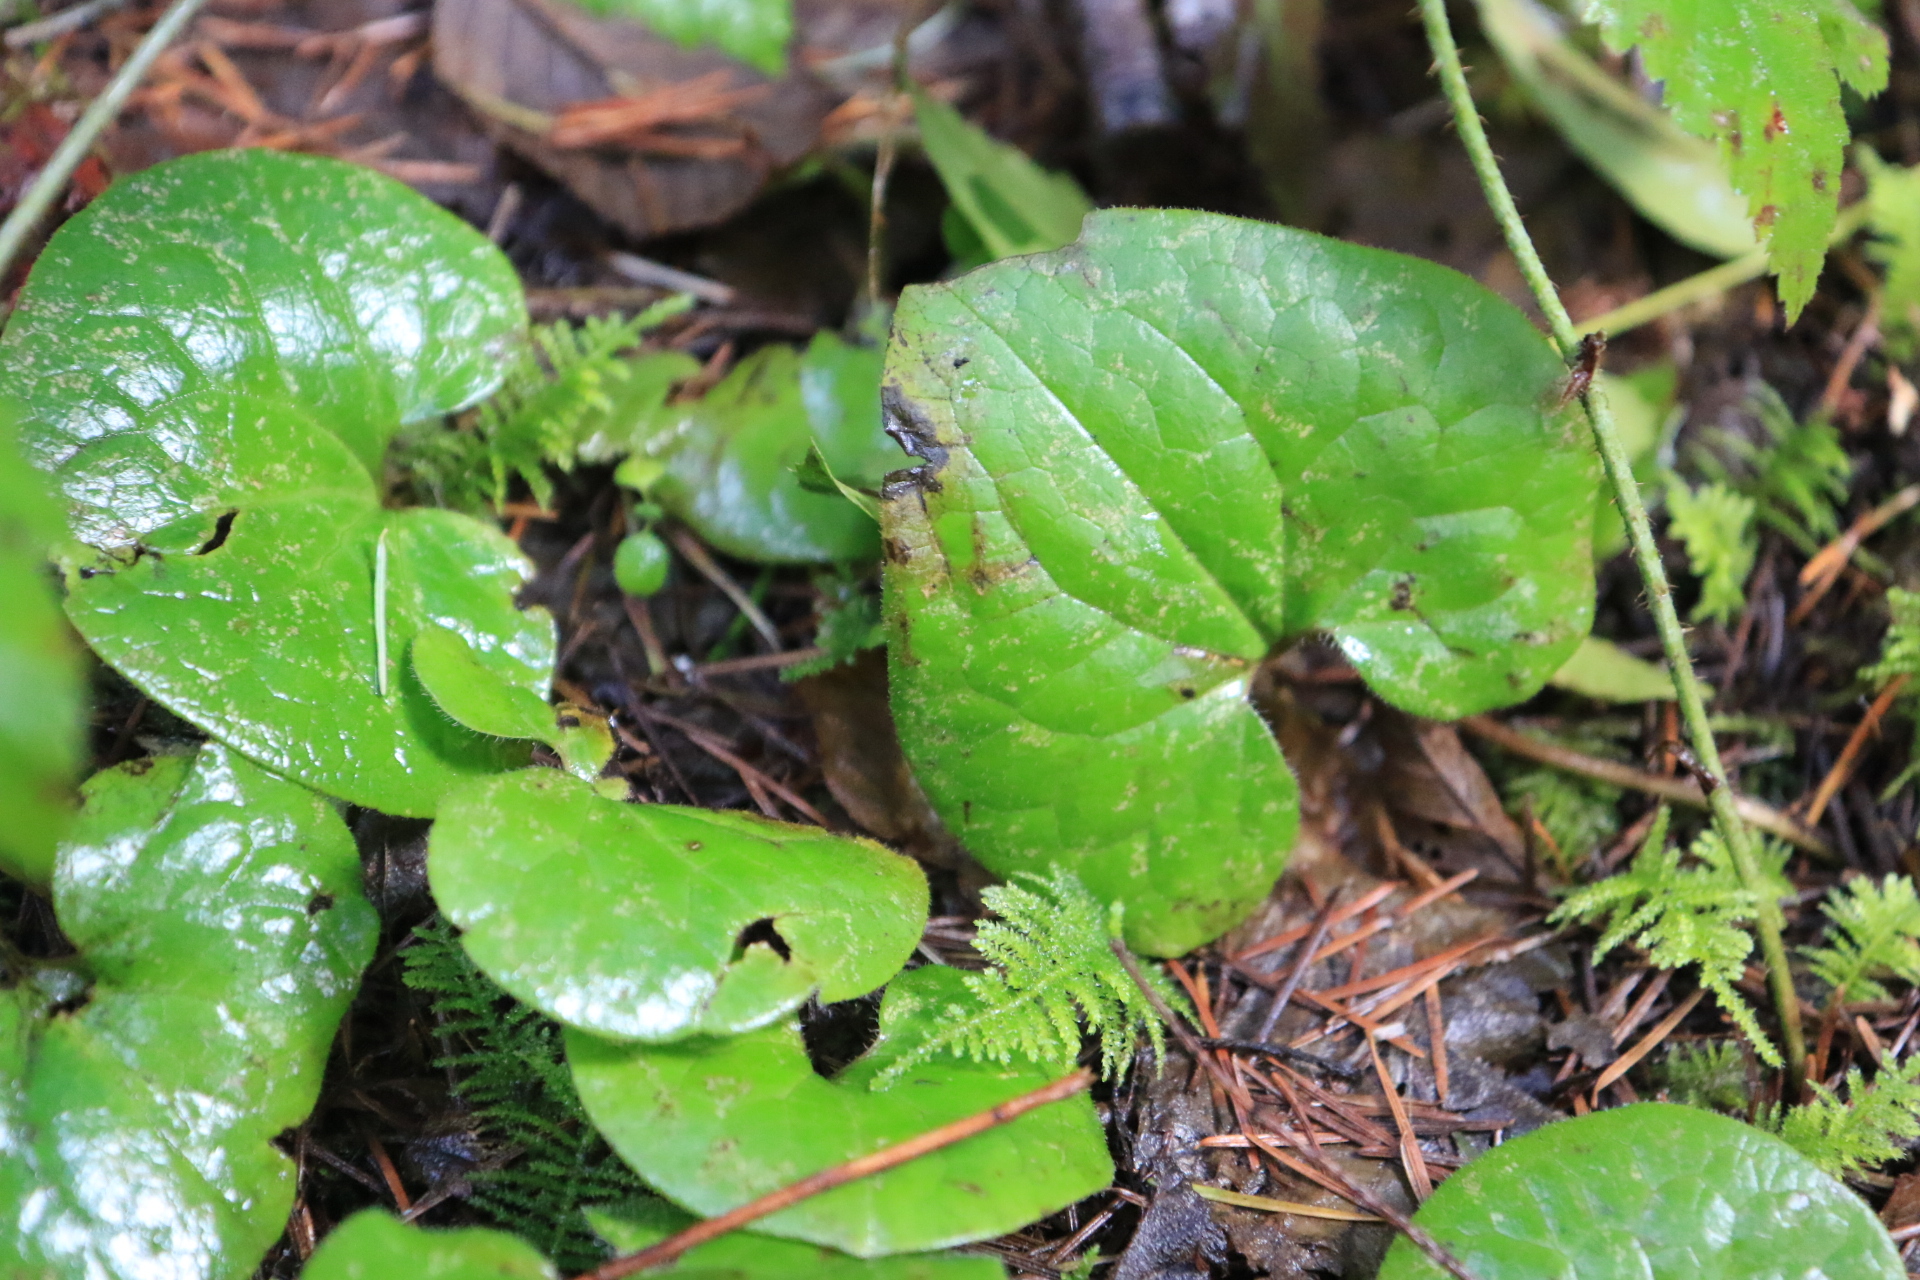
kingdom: Plantae
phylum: Tracheophyta
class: Magnoliopsida
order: Piperales
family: Aristolochiaceae
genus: Asarum
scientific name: Asarum caudatum
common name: Wild ginger
